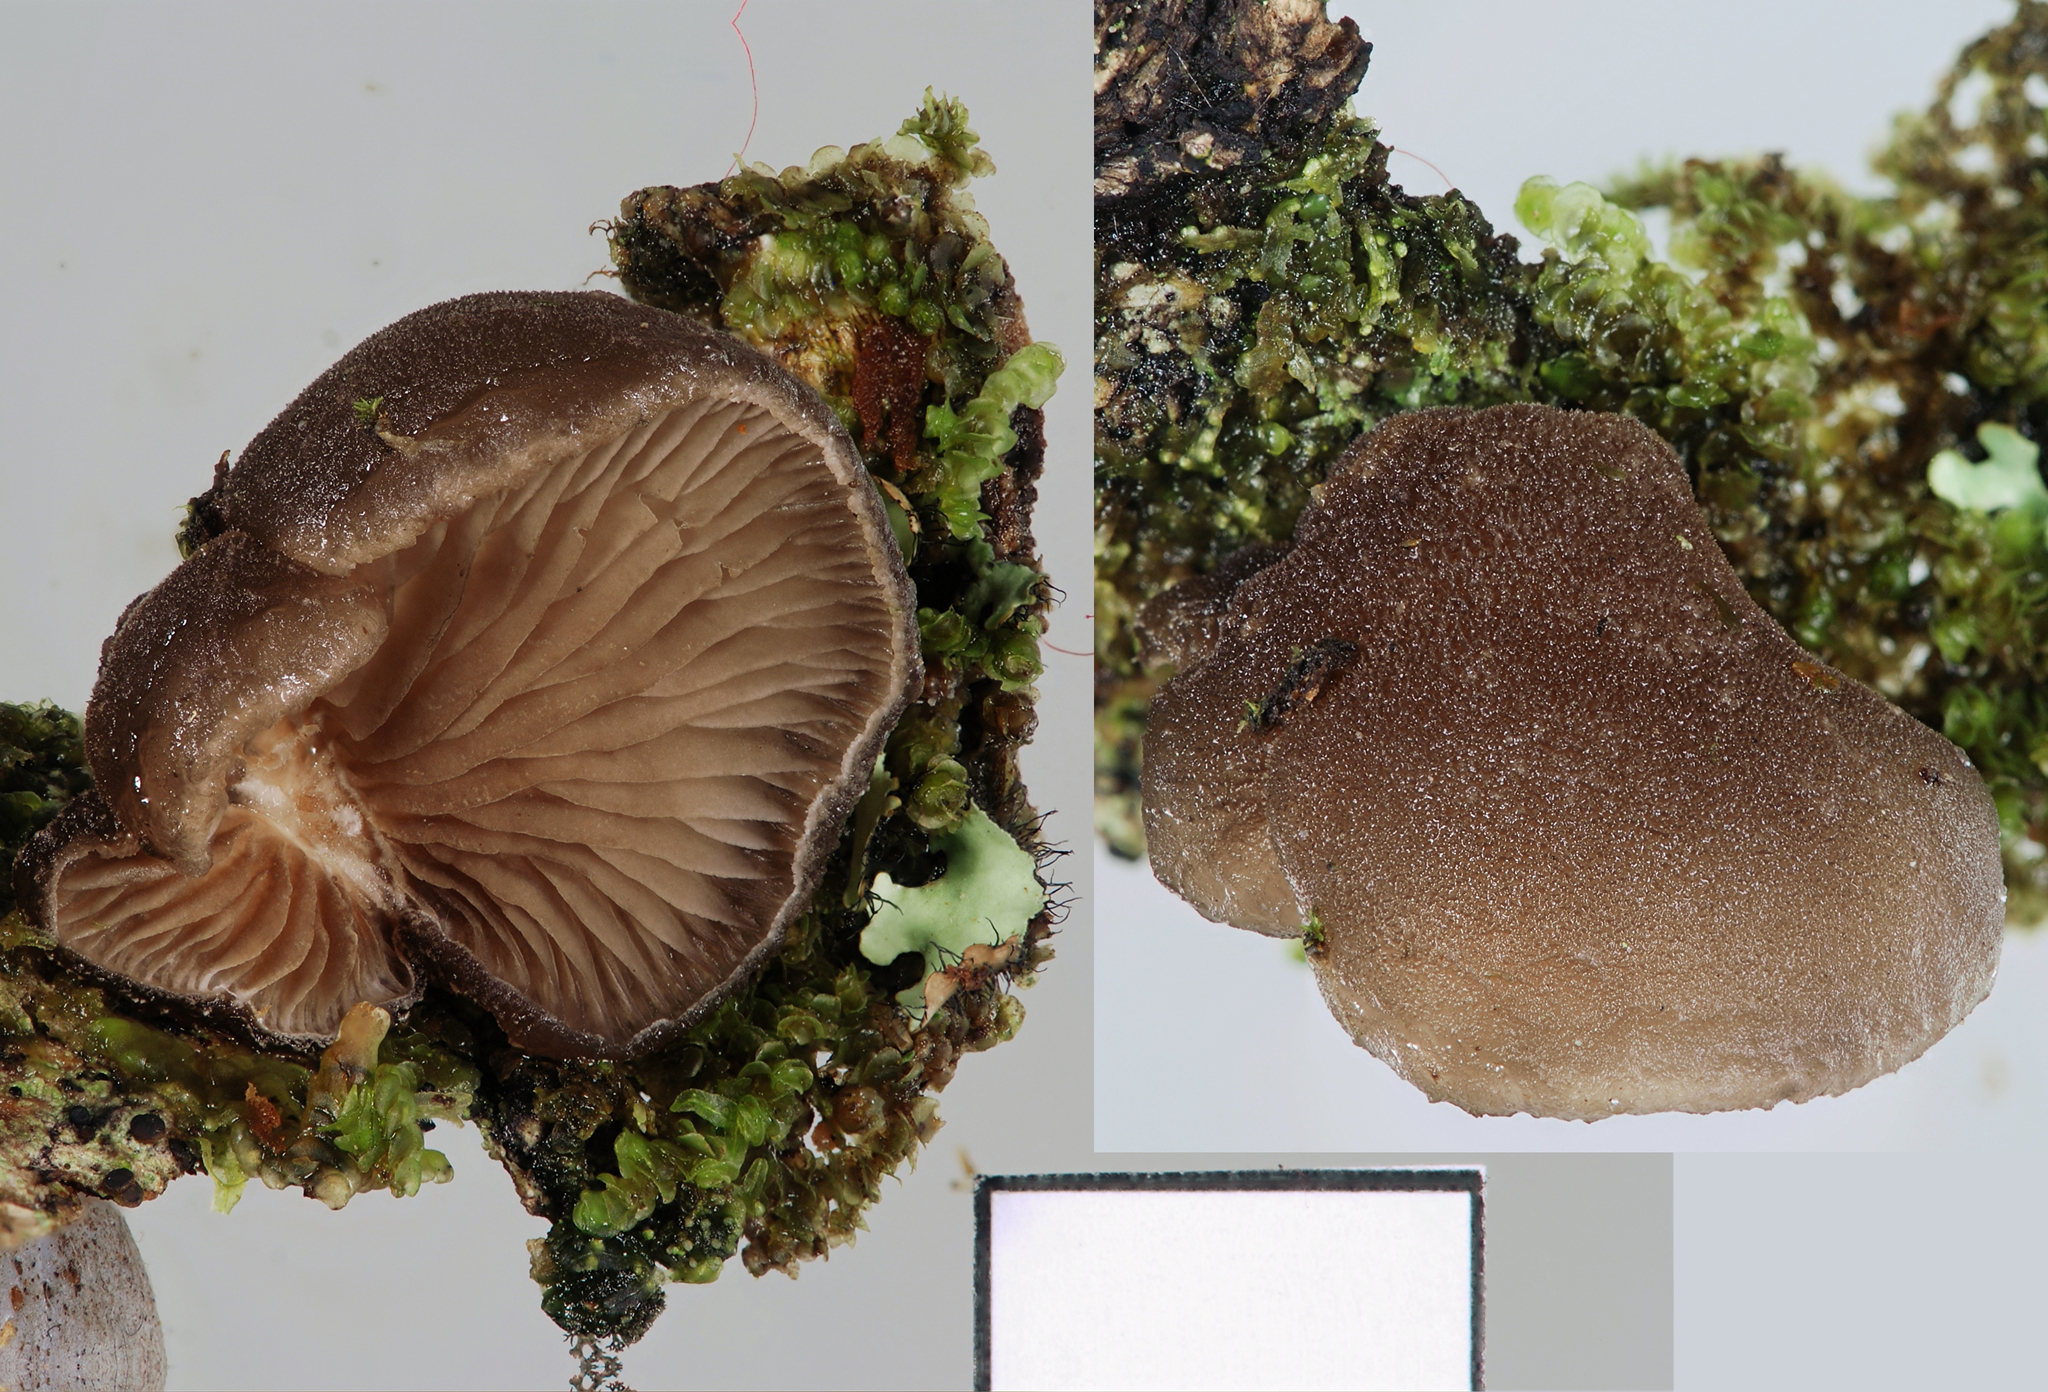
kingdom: Fungi
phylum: Basidiomycota
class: Agaricomycetes
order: Agaricales
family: Omphalotaceae
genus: Marasmiellus
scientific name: Marasmiellus violaceogriseus
